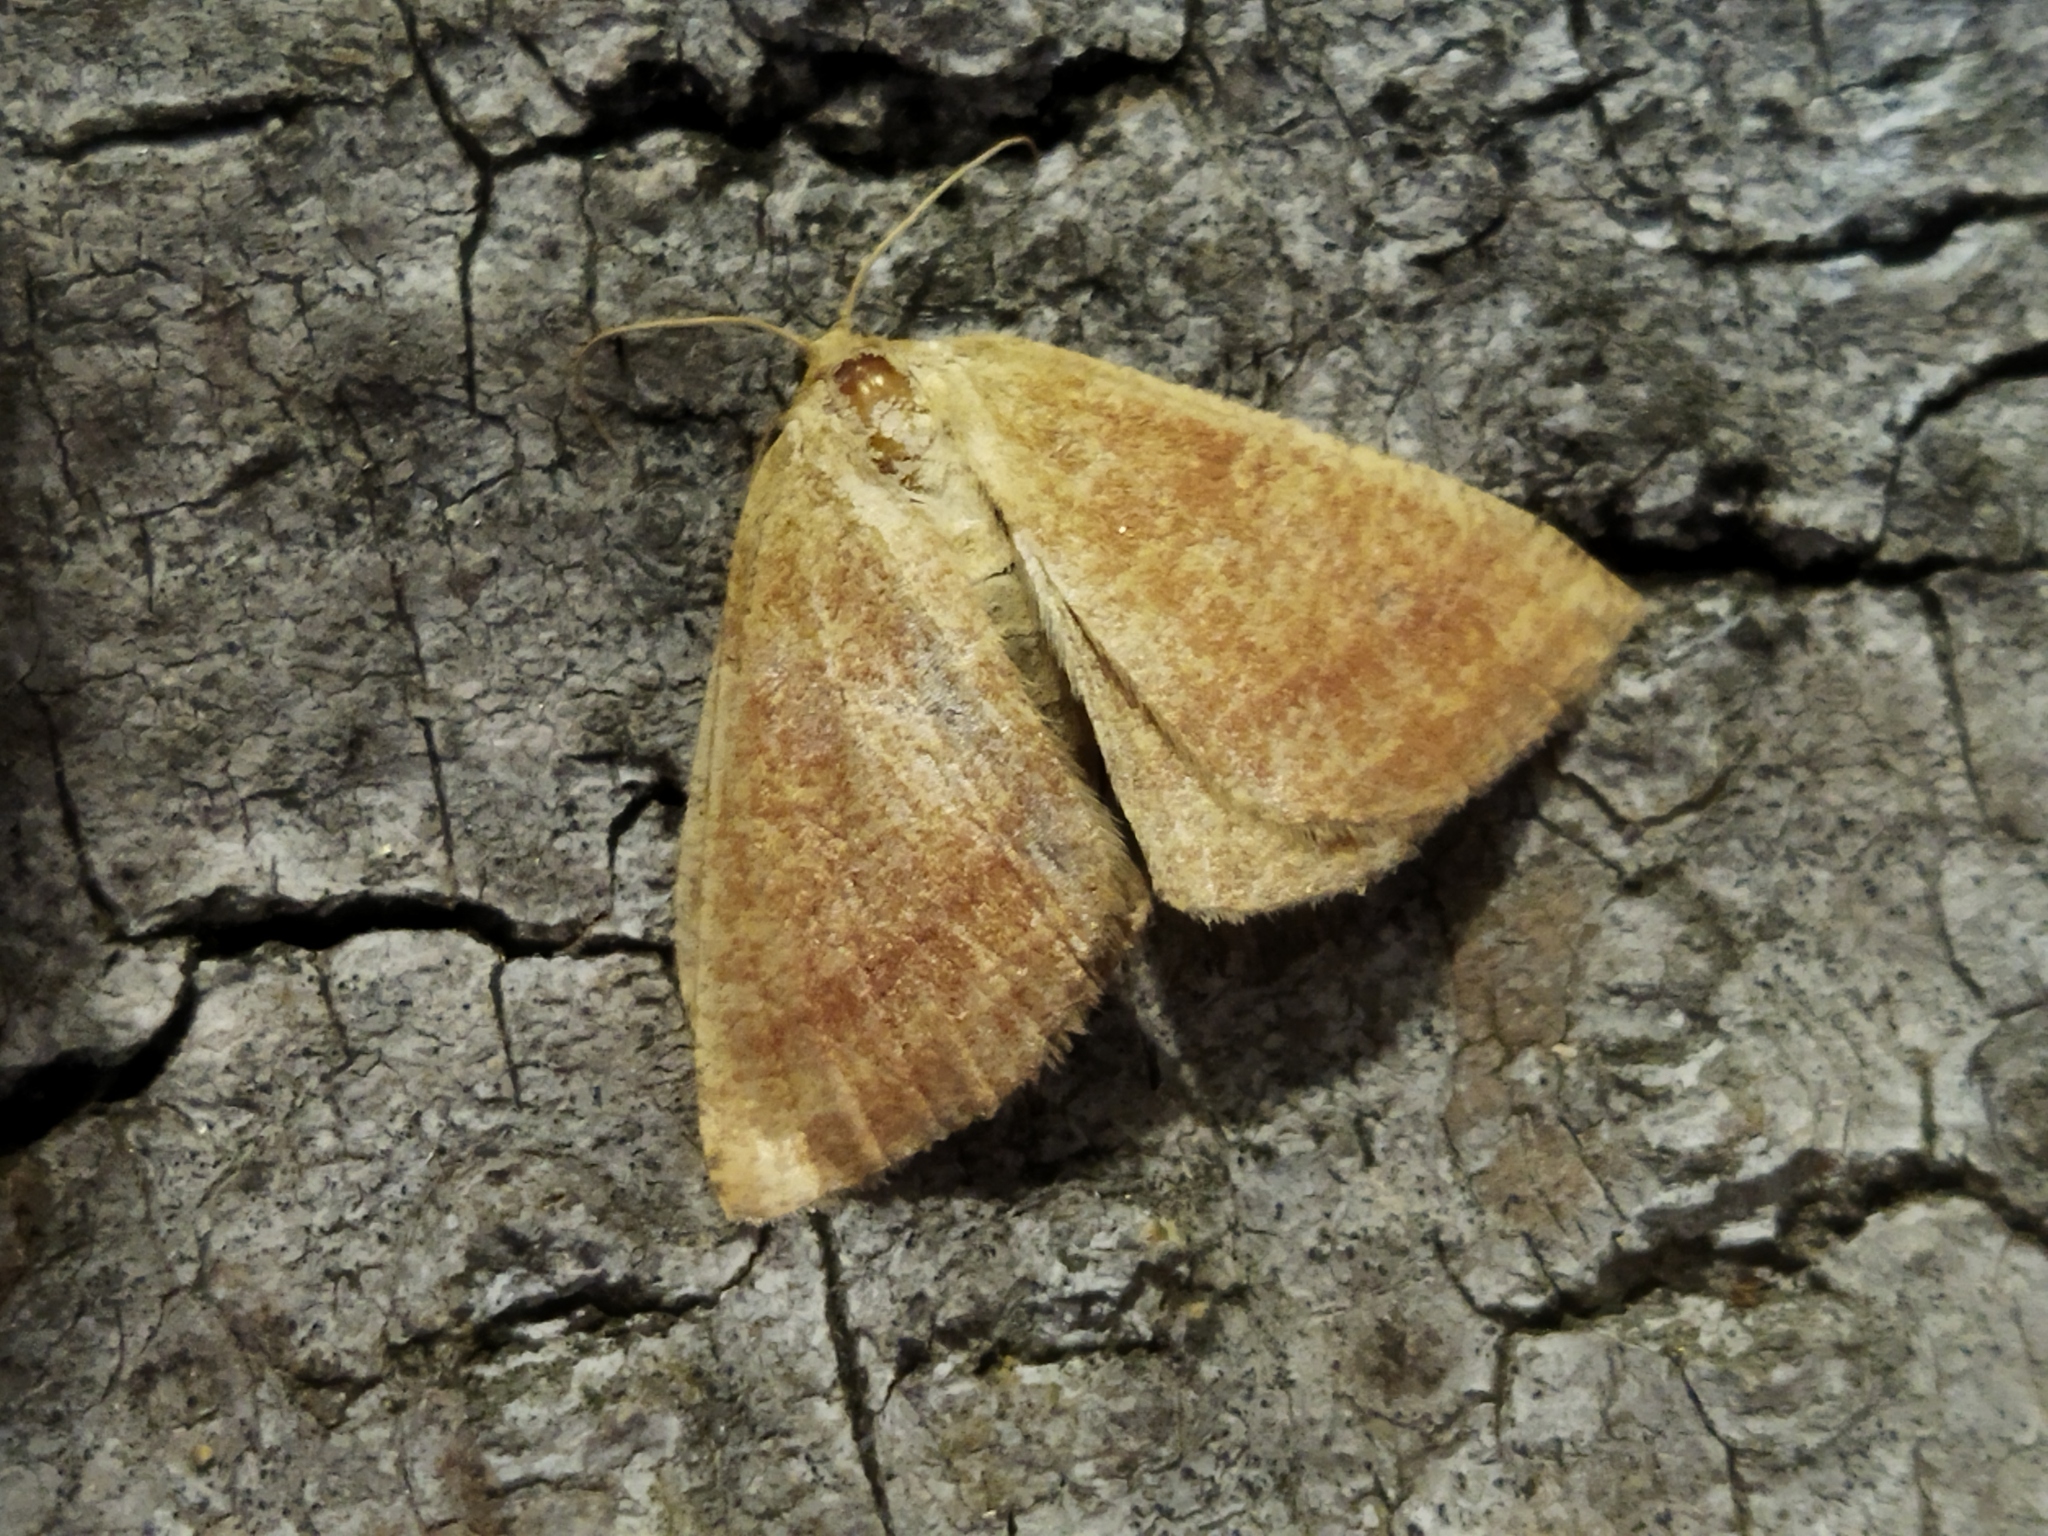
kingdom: Animalia
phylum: Arthropoda
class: Insecta
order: Lepidoptera
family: Geometridae
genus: Aplasta
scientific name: Aplasta ononaria
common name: Rest harrow
